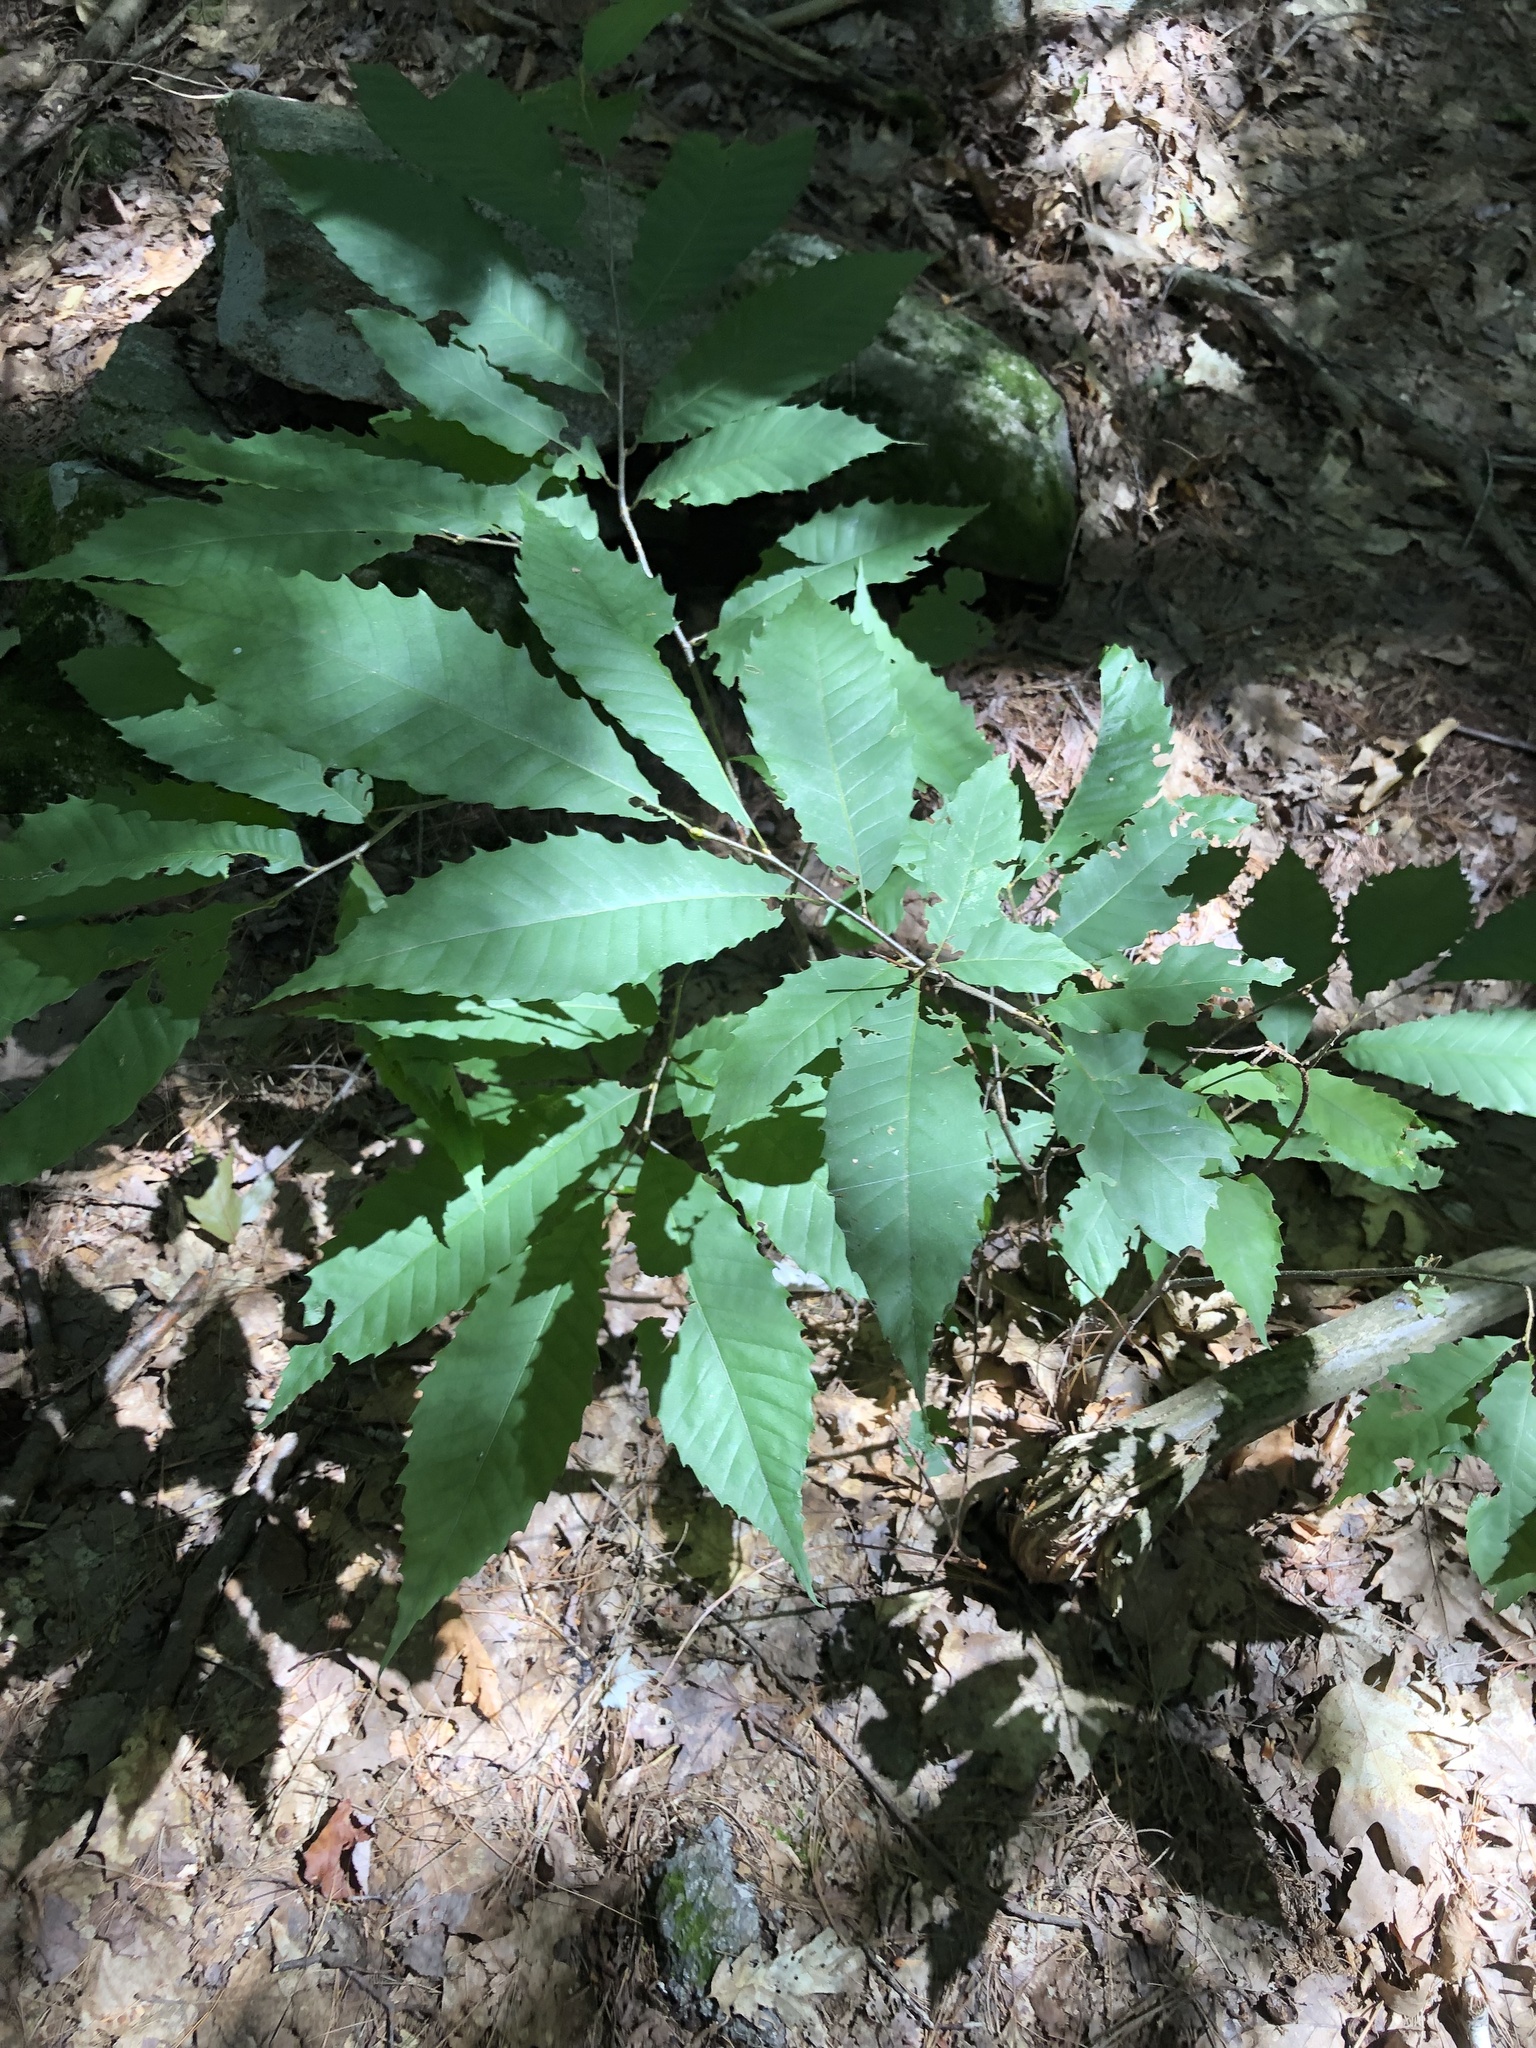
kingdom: Plantae
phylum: Tracheophyta
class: Magnoliopsida
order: Fagales
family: Fagaceae
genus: Castanea
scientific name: Castanea dentata
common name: American chestnut
